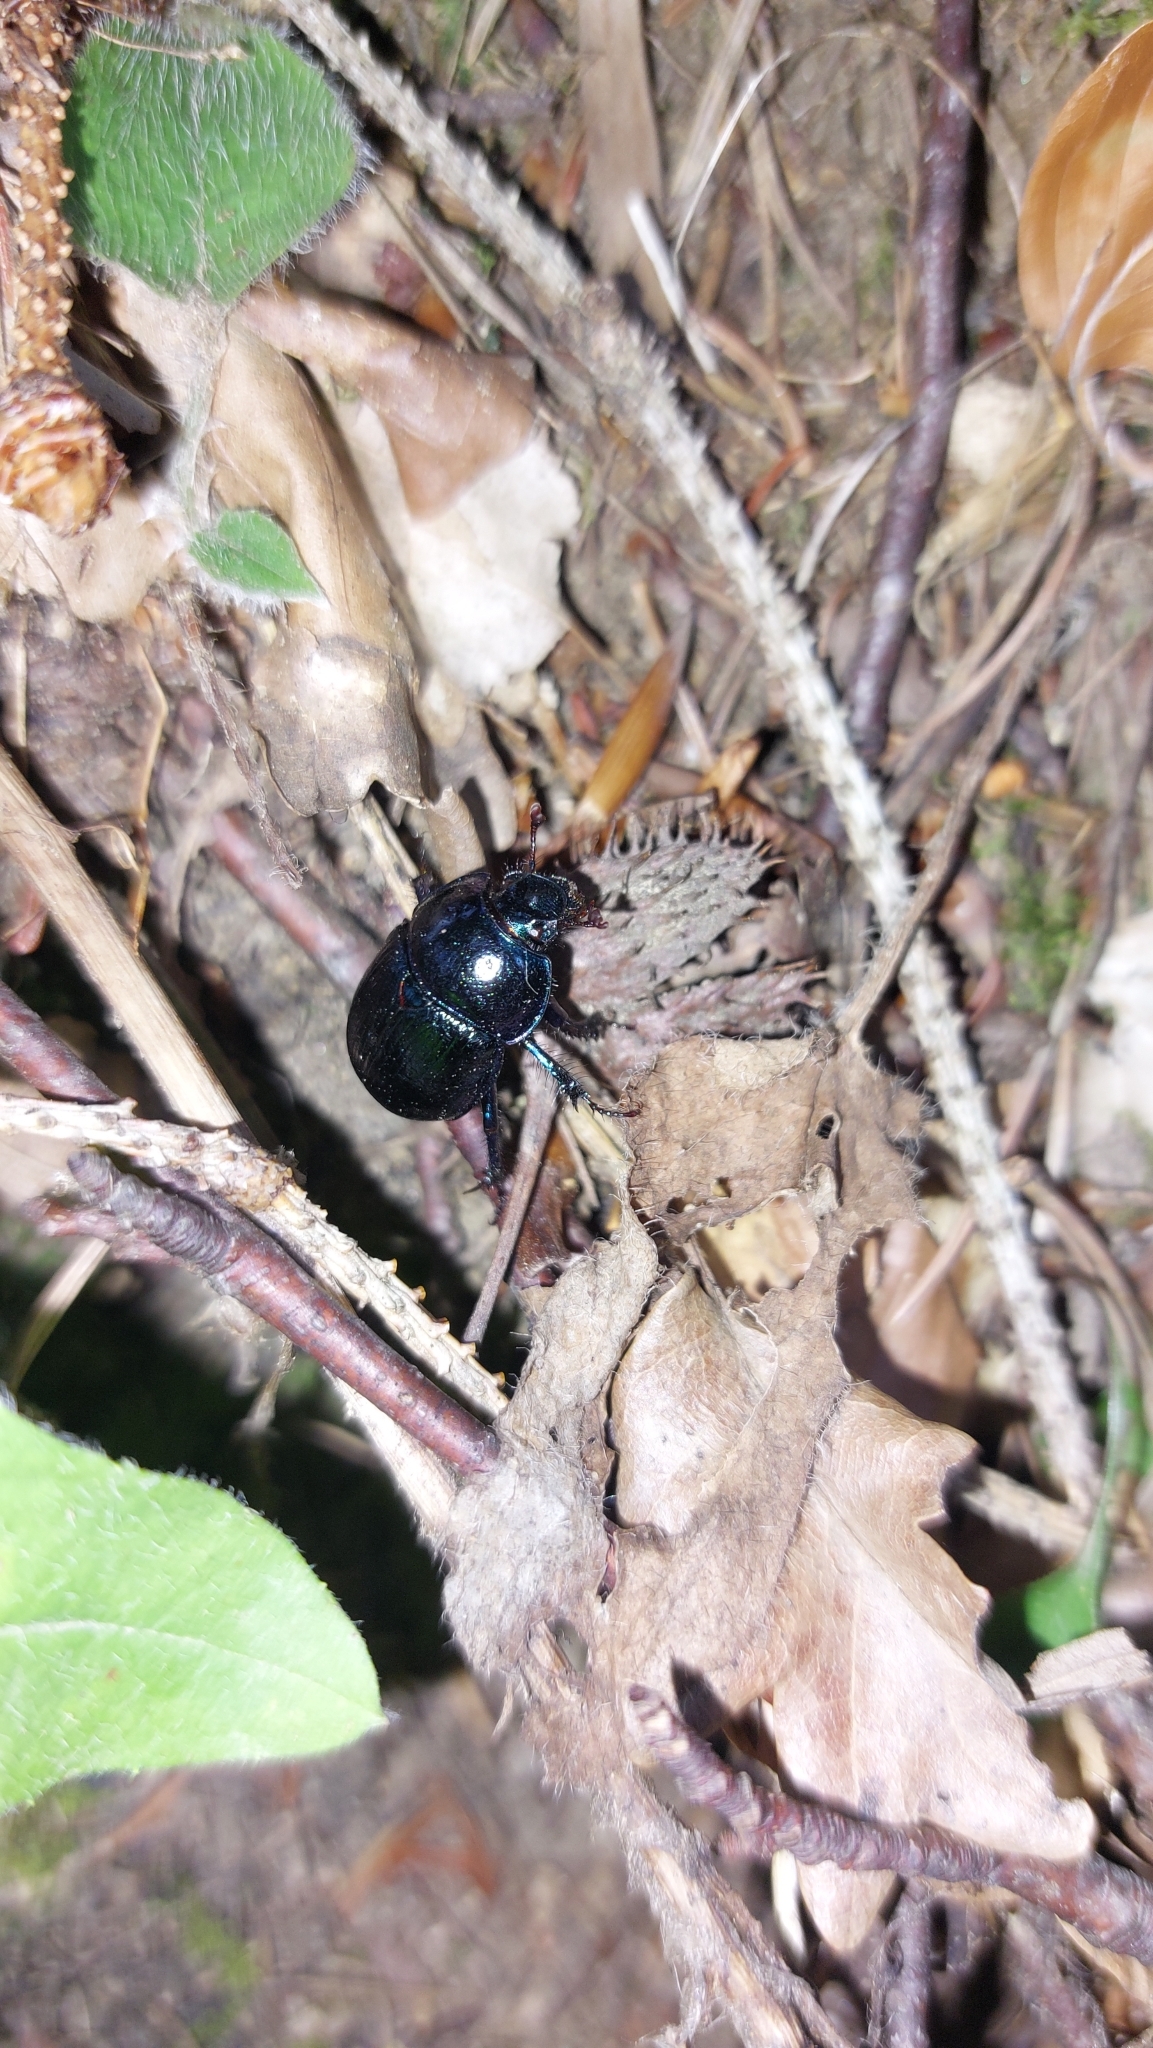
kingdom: Animalia
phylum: Arthropoda
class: Insecta
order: Coleoptera
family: Geotrupidae
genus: Anoplotrupes
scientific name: Anoplotrupes stercorosus
